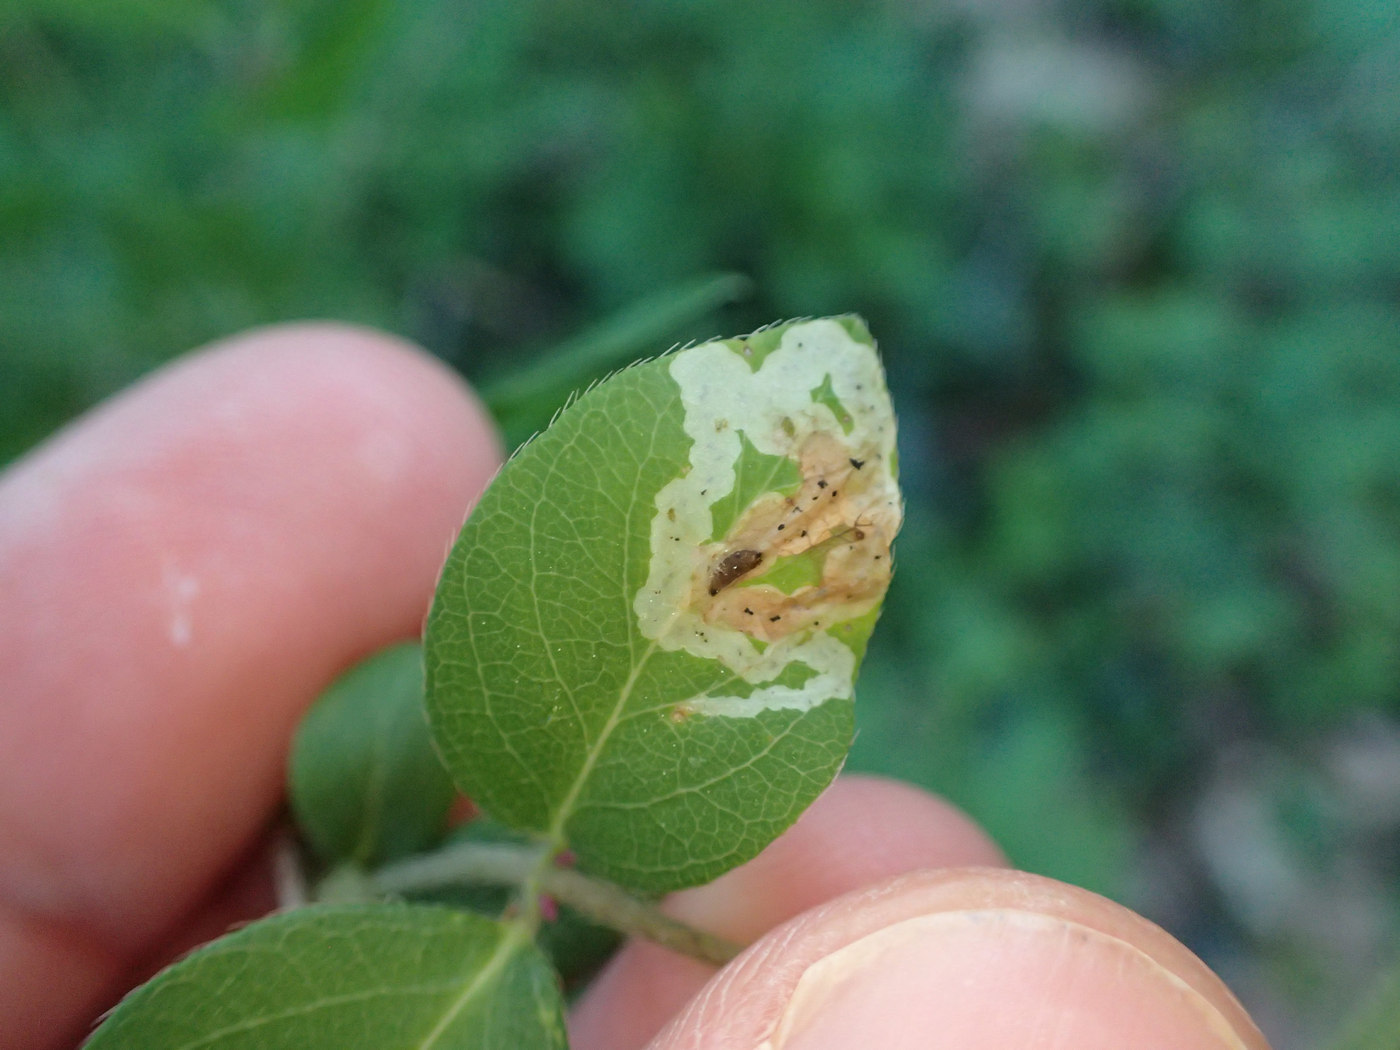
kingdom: Animalia
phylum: Arthropoda
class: Insecta
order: Diptera
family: Agromyzidae
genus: Aulagromyza
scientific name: Aulagromyza cornigera
